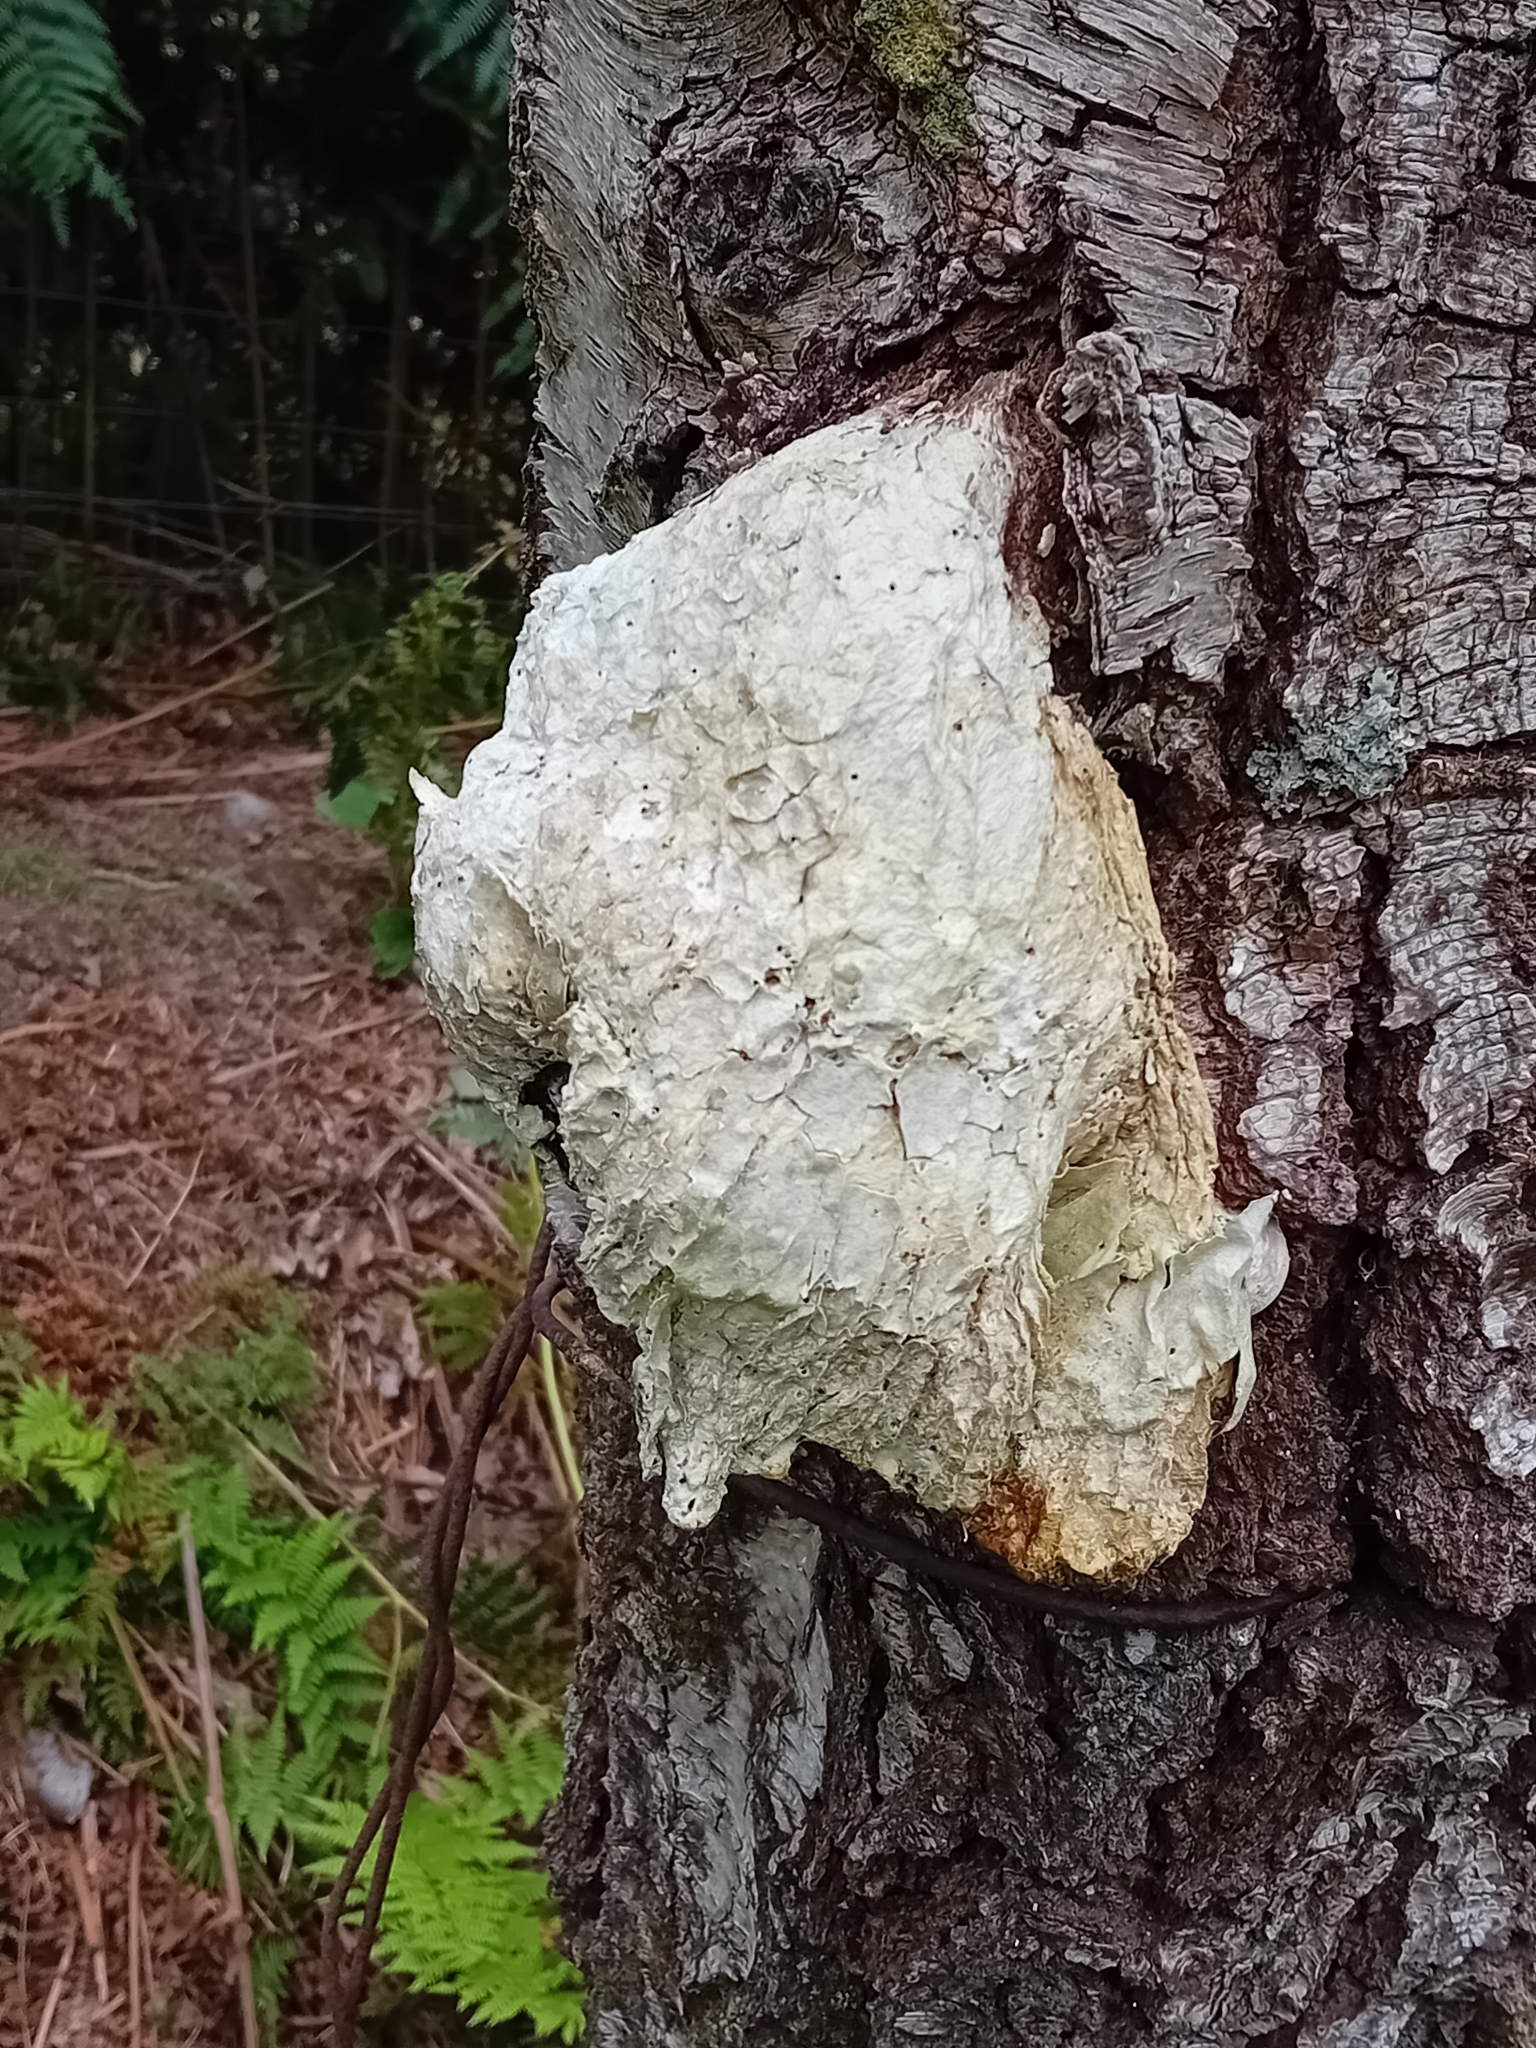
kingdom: Fungi
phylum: Basidiomycota
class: Agaricomycetes
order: Polyporales
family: Fomitopsidaceae
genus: Fomitopsis
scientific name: Fomitopsis betulina
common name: Birch polypore
